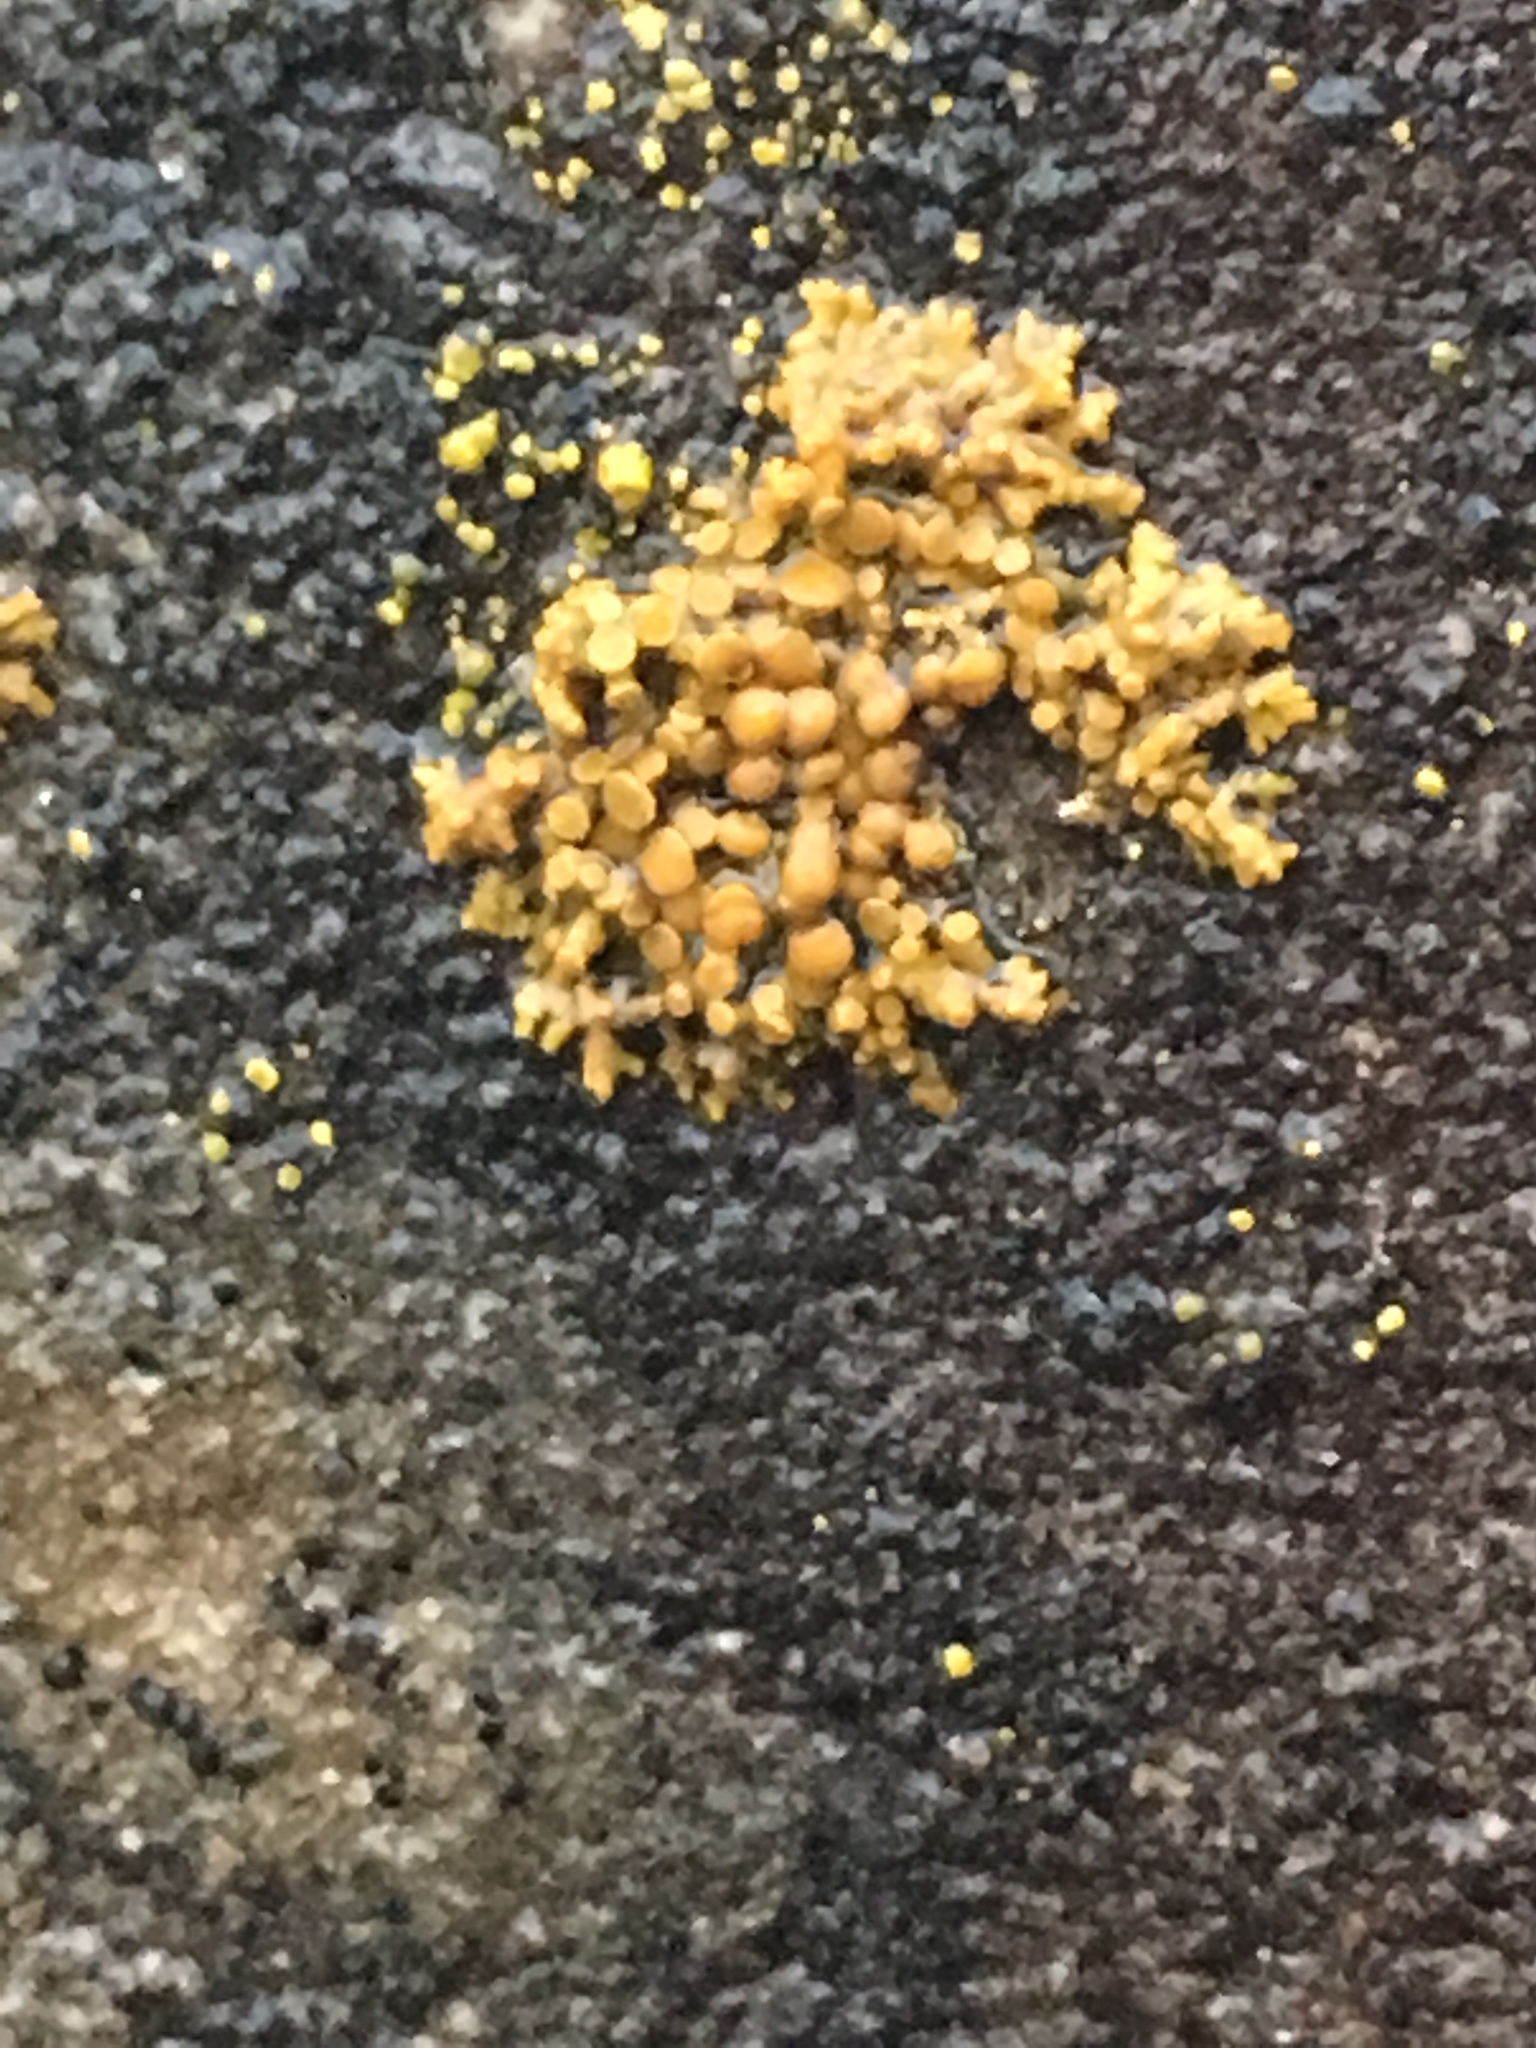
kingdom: Fungi
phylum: Ascomycota
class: Lecanoromycetes
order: Teloschistales
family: Teloschistaceae
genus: Xanthoria
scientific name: Xanthoria elegans
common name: Elegant sunburst lichen
